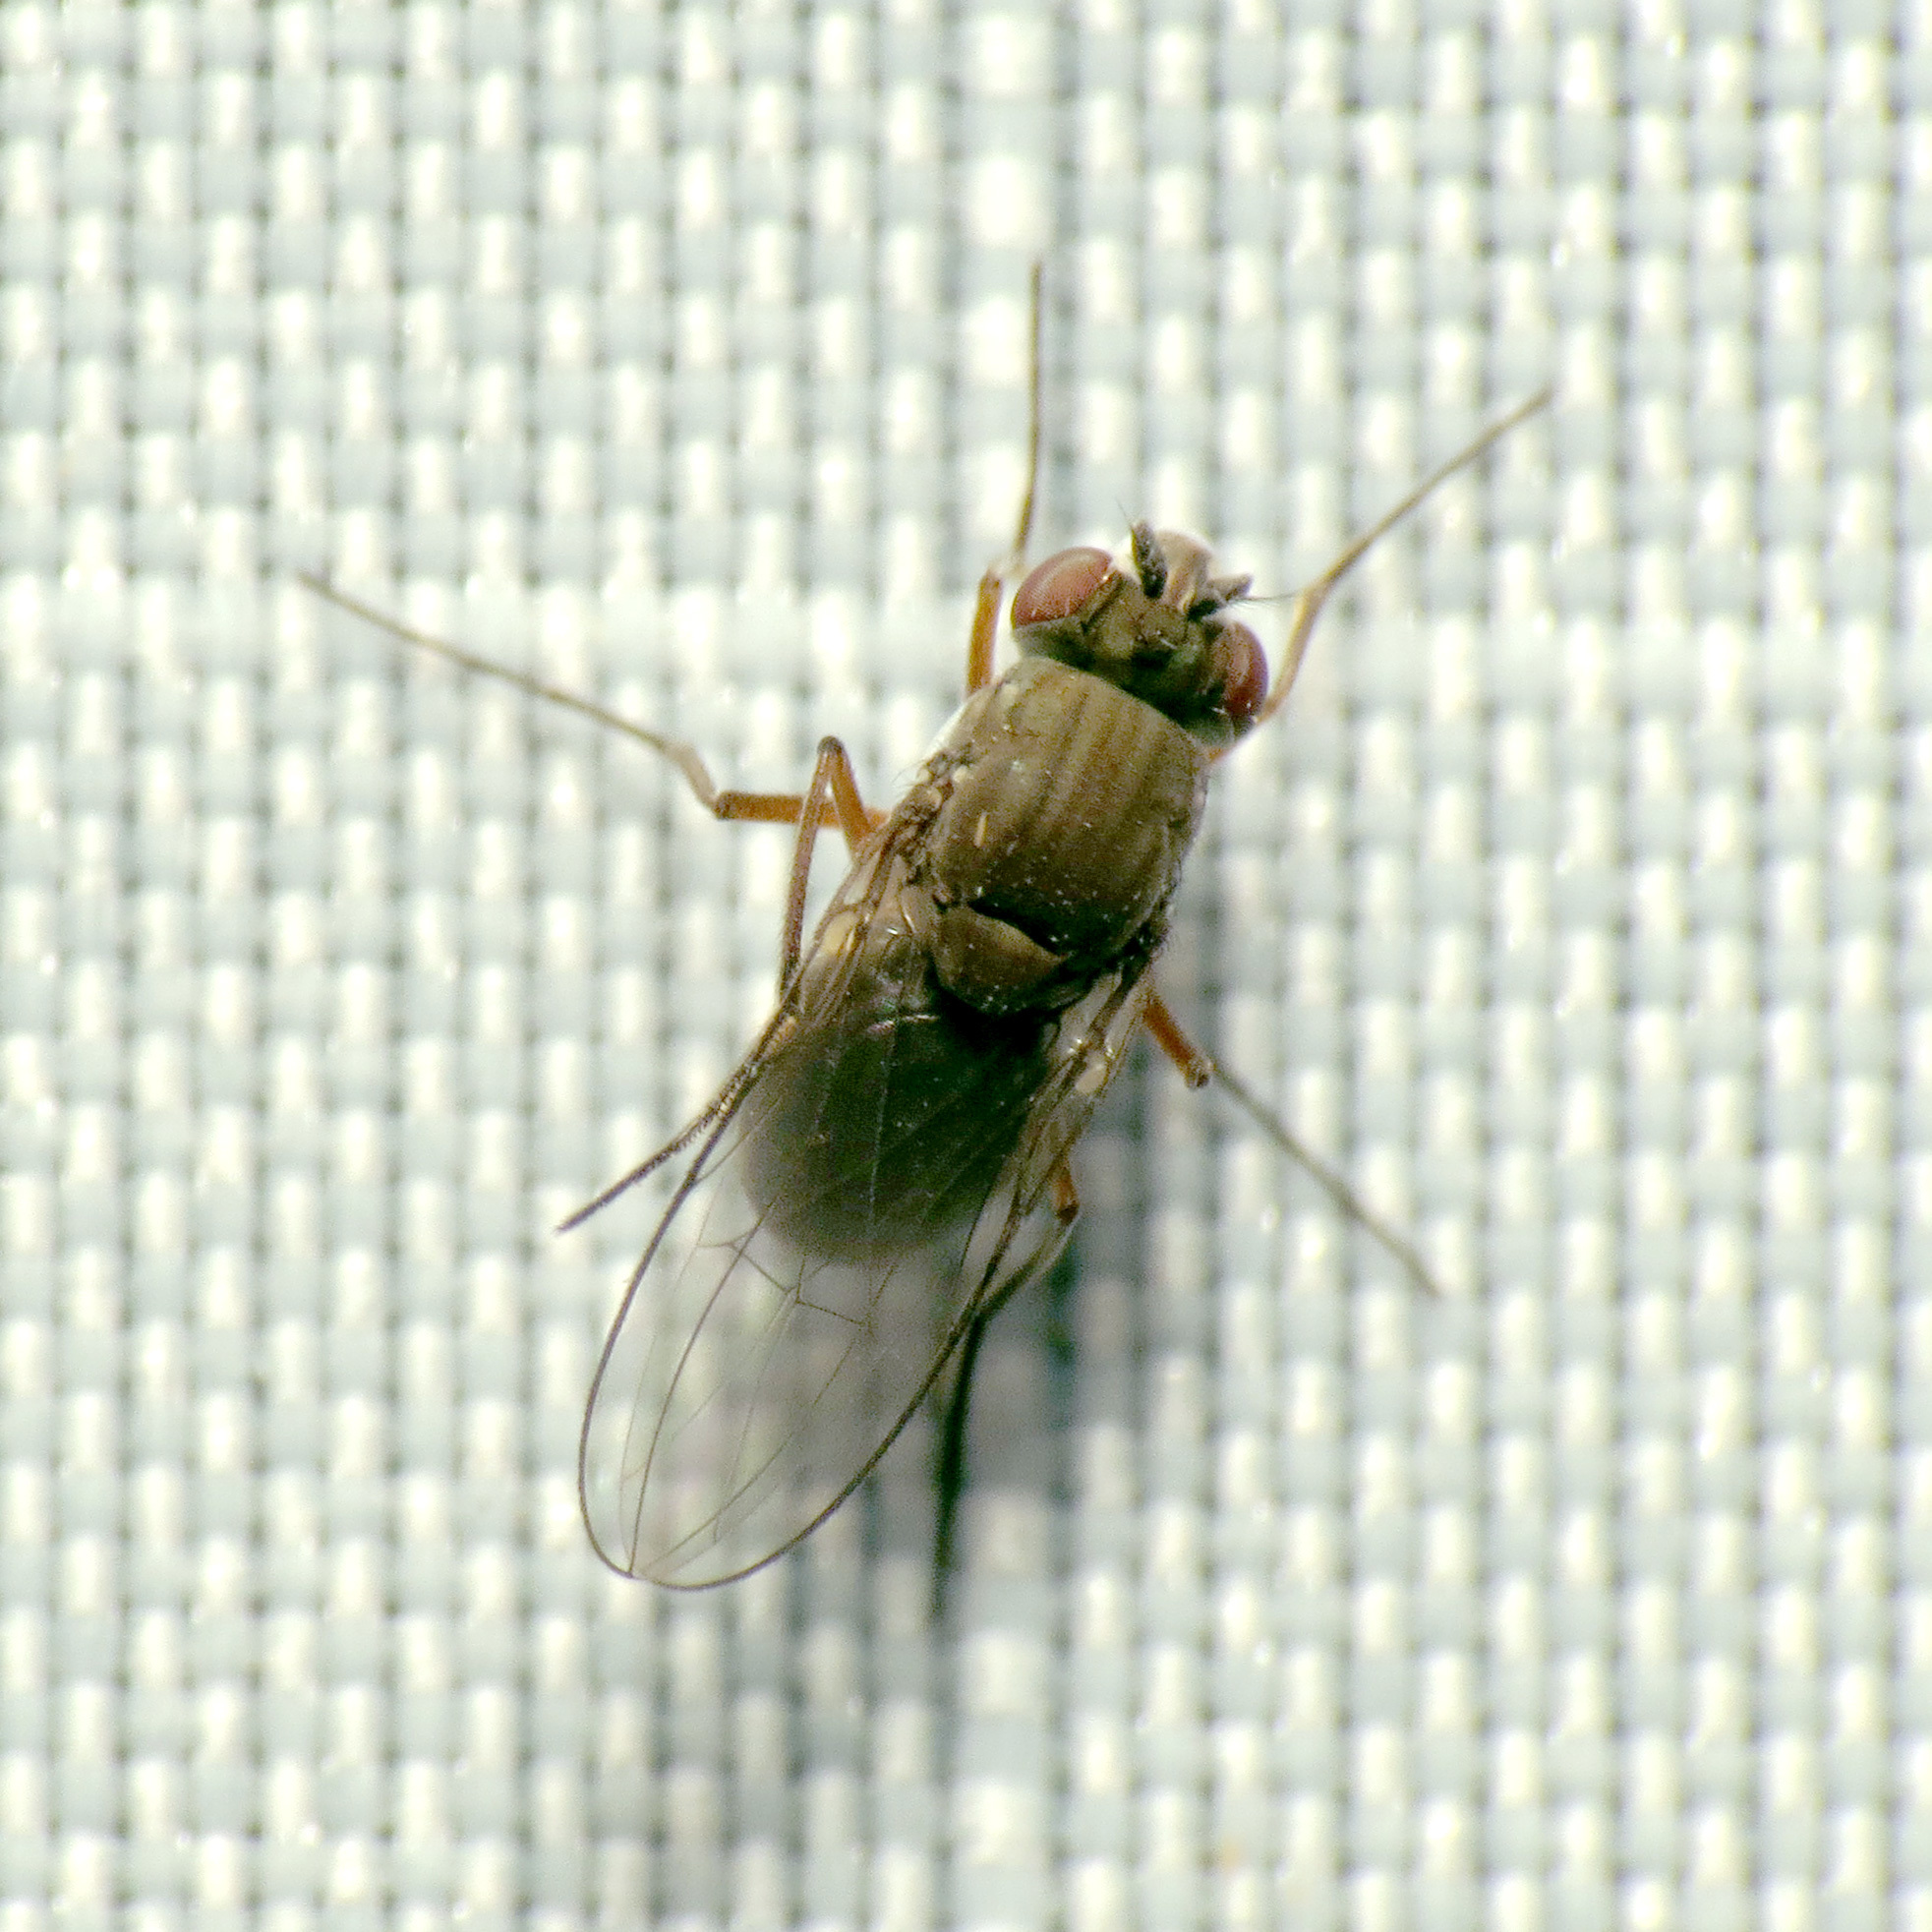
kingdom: Animalia
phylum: Arthropoda
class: Insecta
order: Diptera
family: Ephydridae
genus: Brachydeutera
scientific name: Brachydeutera sturtevanti
